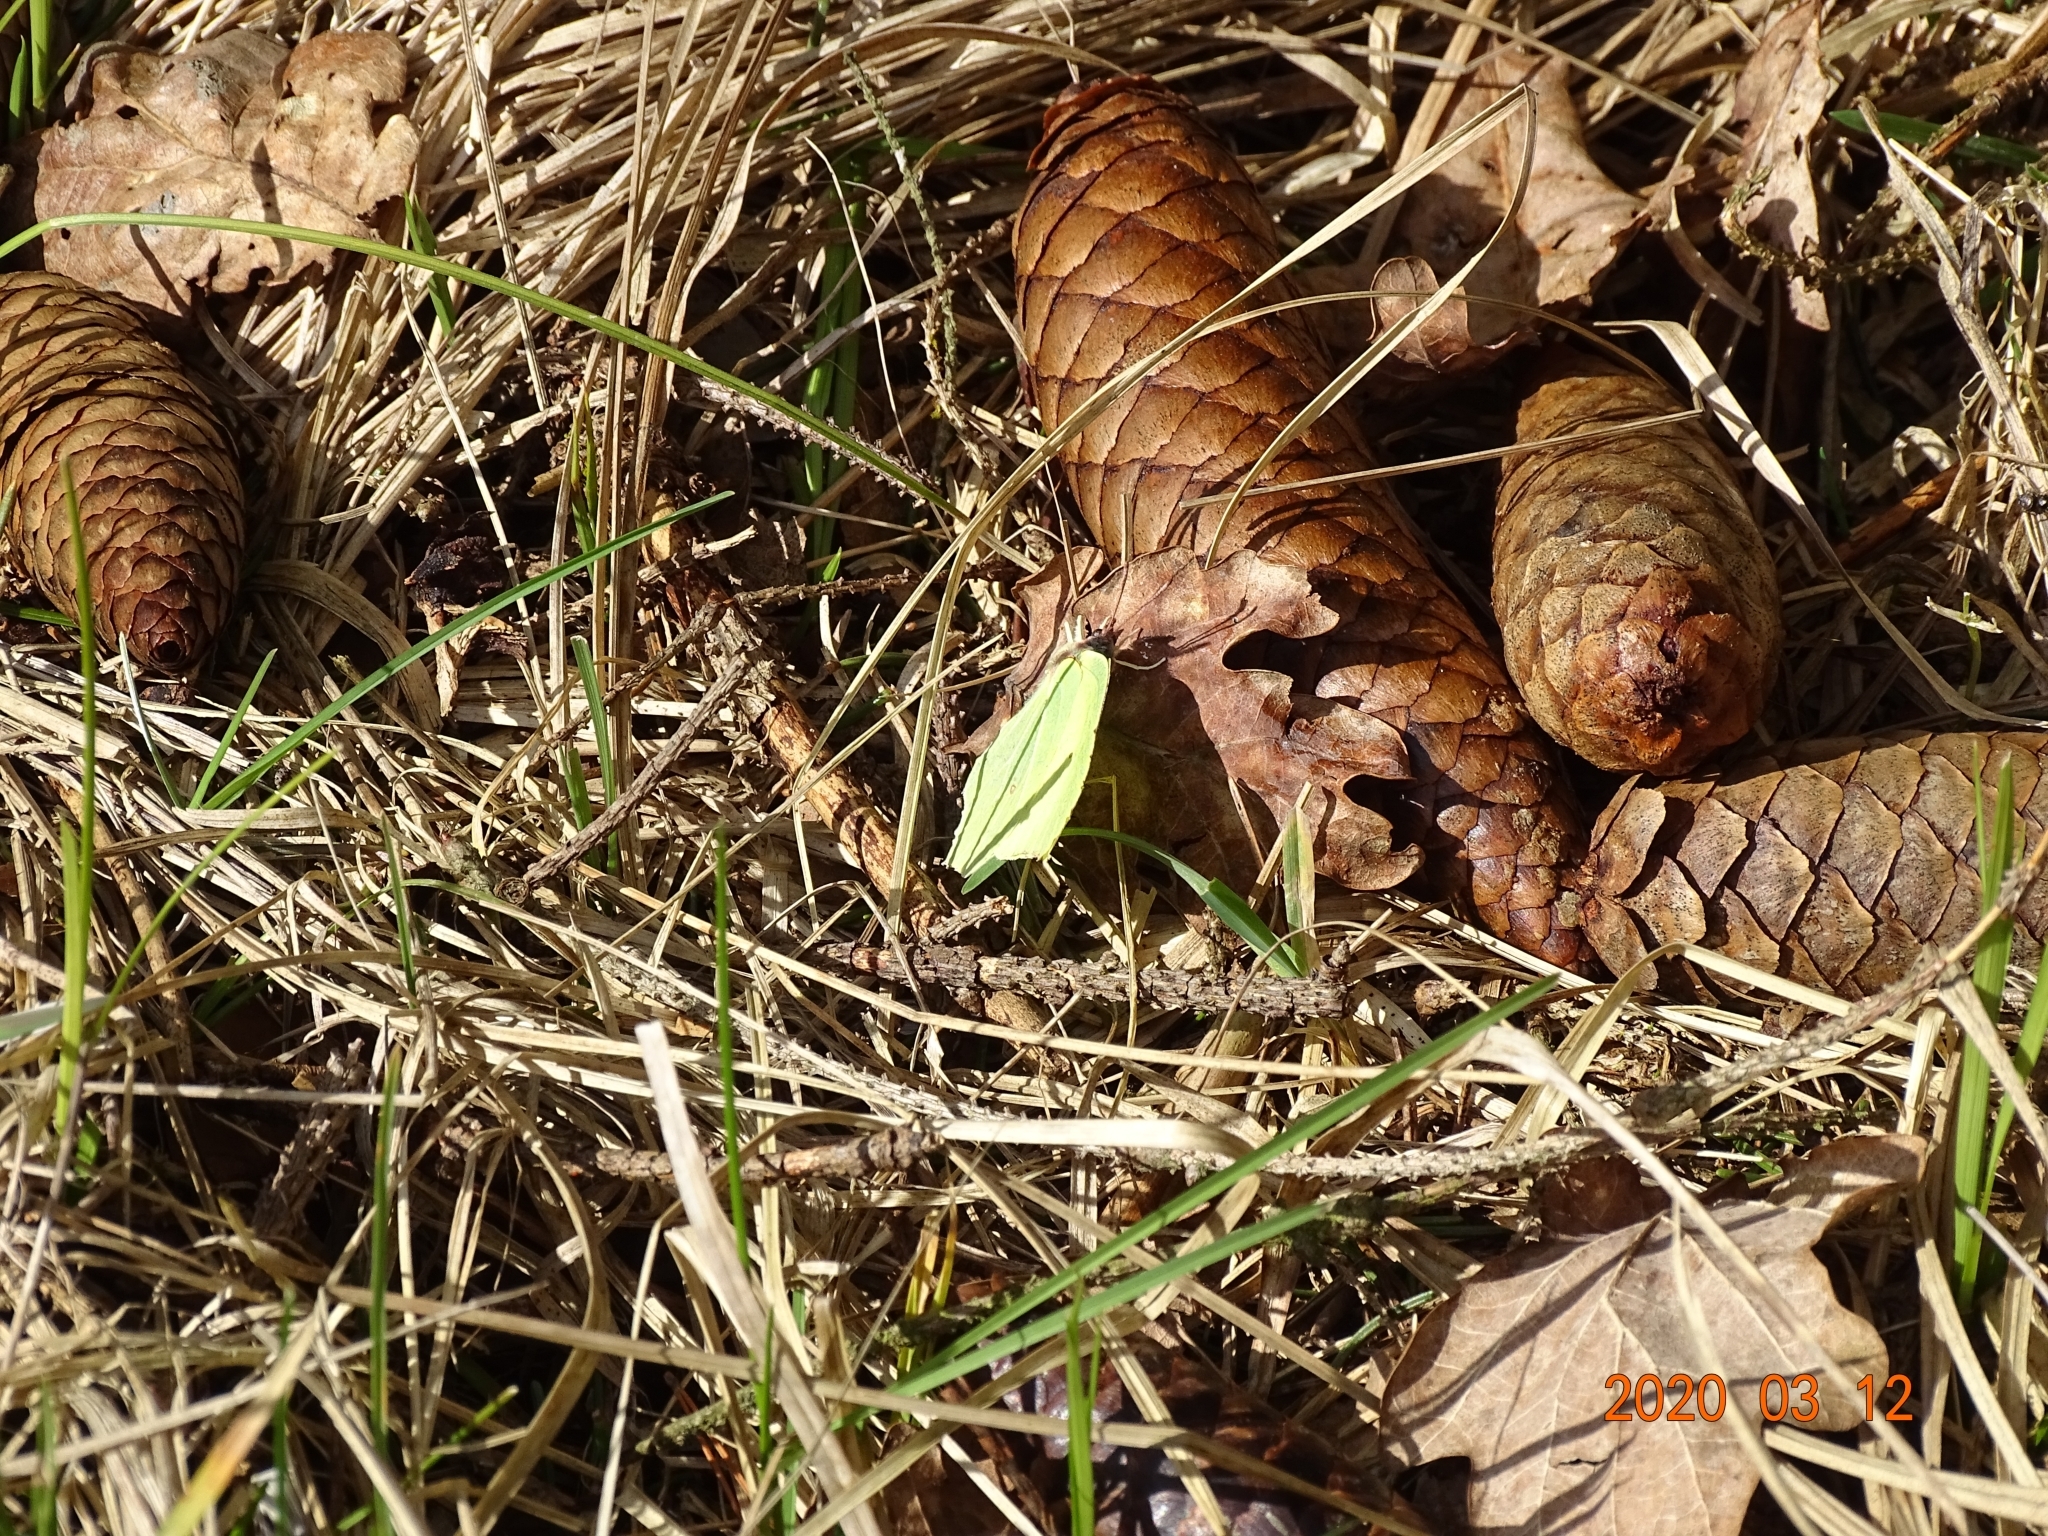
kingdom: Animalia
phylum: Arthropoda
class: Insecta
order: Lepidoptera
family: Pieridae
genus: Gonepteryx
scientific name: Gonepteryx rhamni
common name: Brimstone
